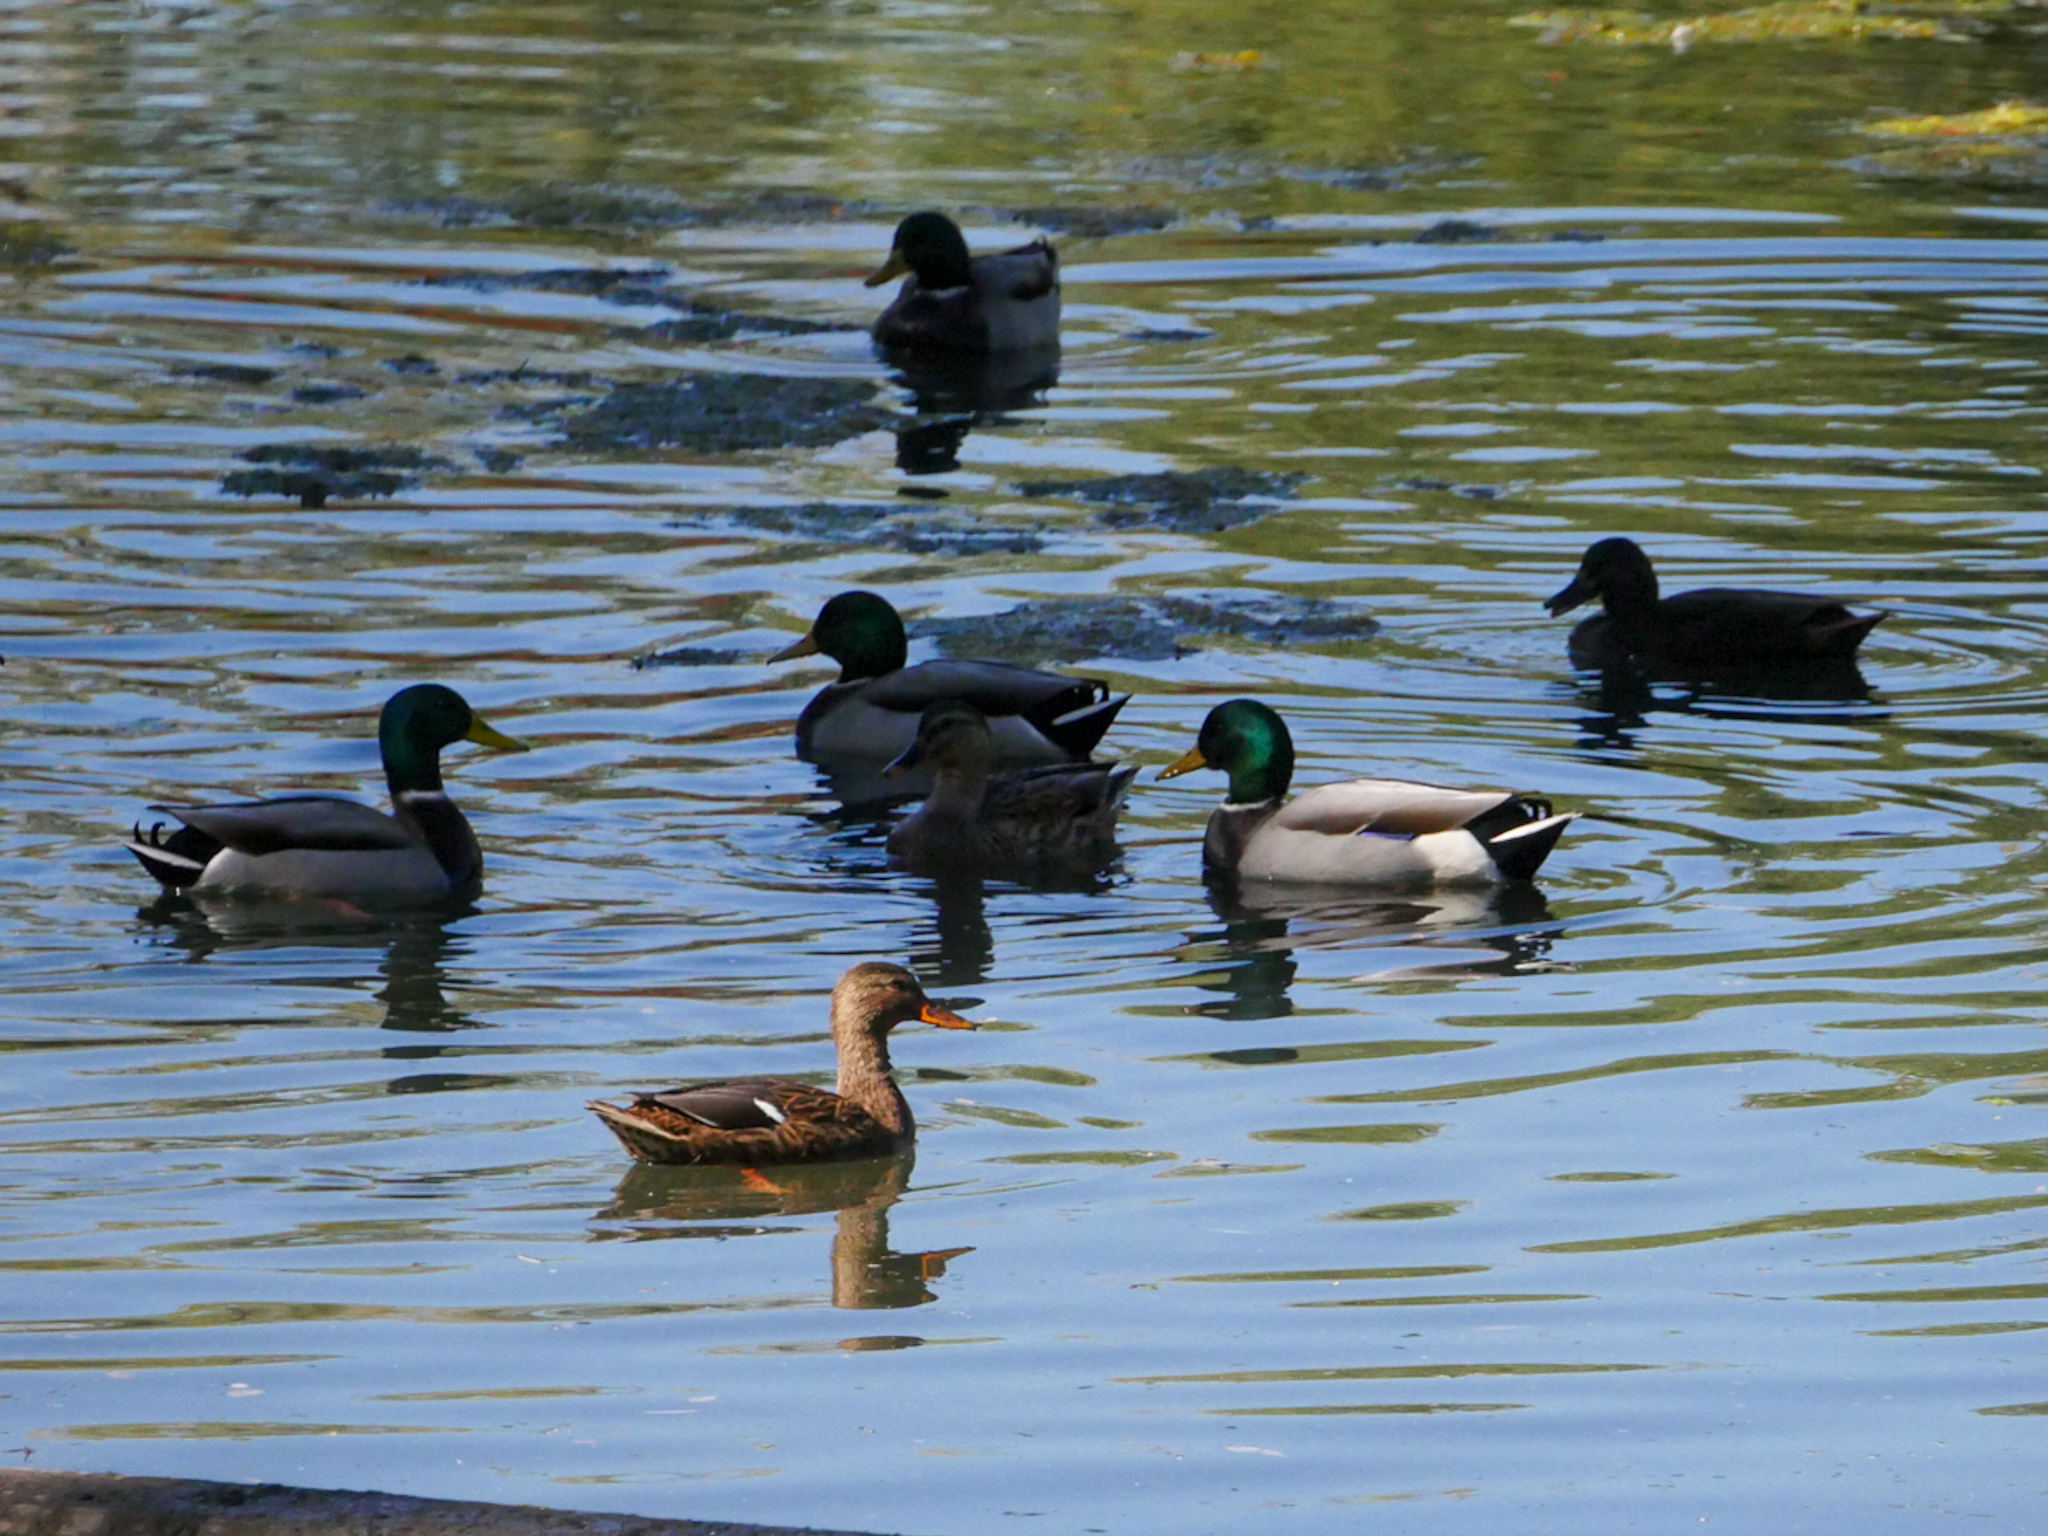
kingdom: Animalia
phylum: Chordata
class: Aves
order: Anseriformes
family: Anatidae
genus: Anas
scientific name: Anas platyrhynchos
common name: Mallard
